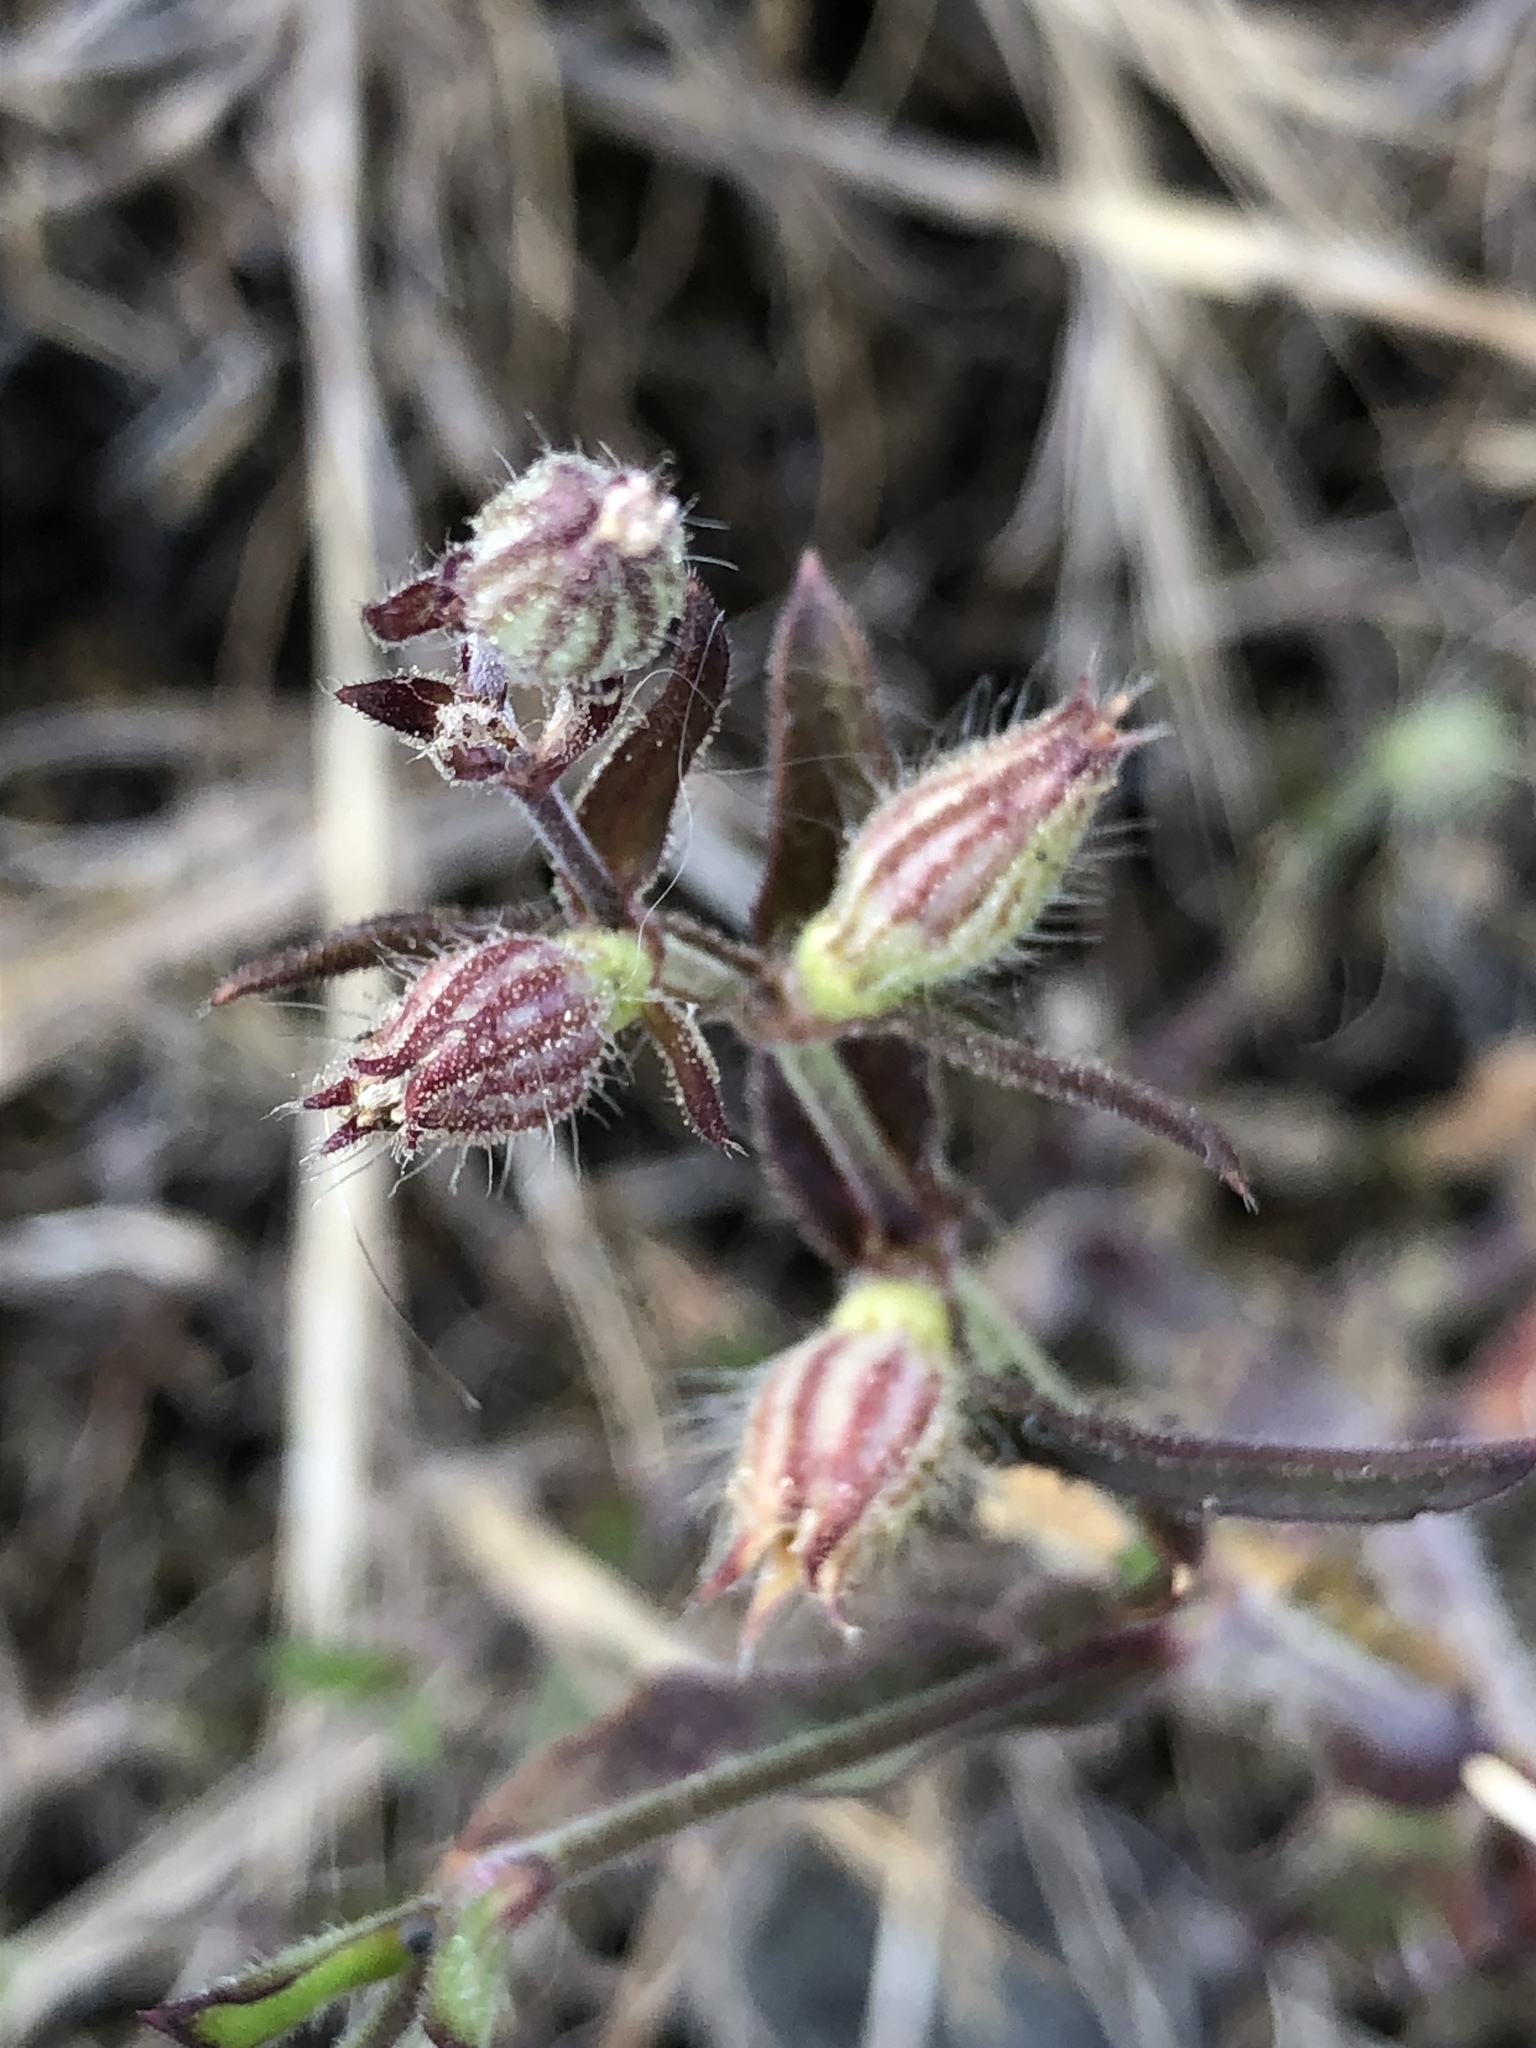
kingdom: Plantae
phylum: Tracheophyta
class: Magnoliopsida
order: Caryophyllales
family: Caryophyllaceae
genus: Silene
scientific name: Silene gallica
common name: Small-flowered catchfly
